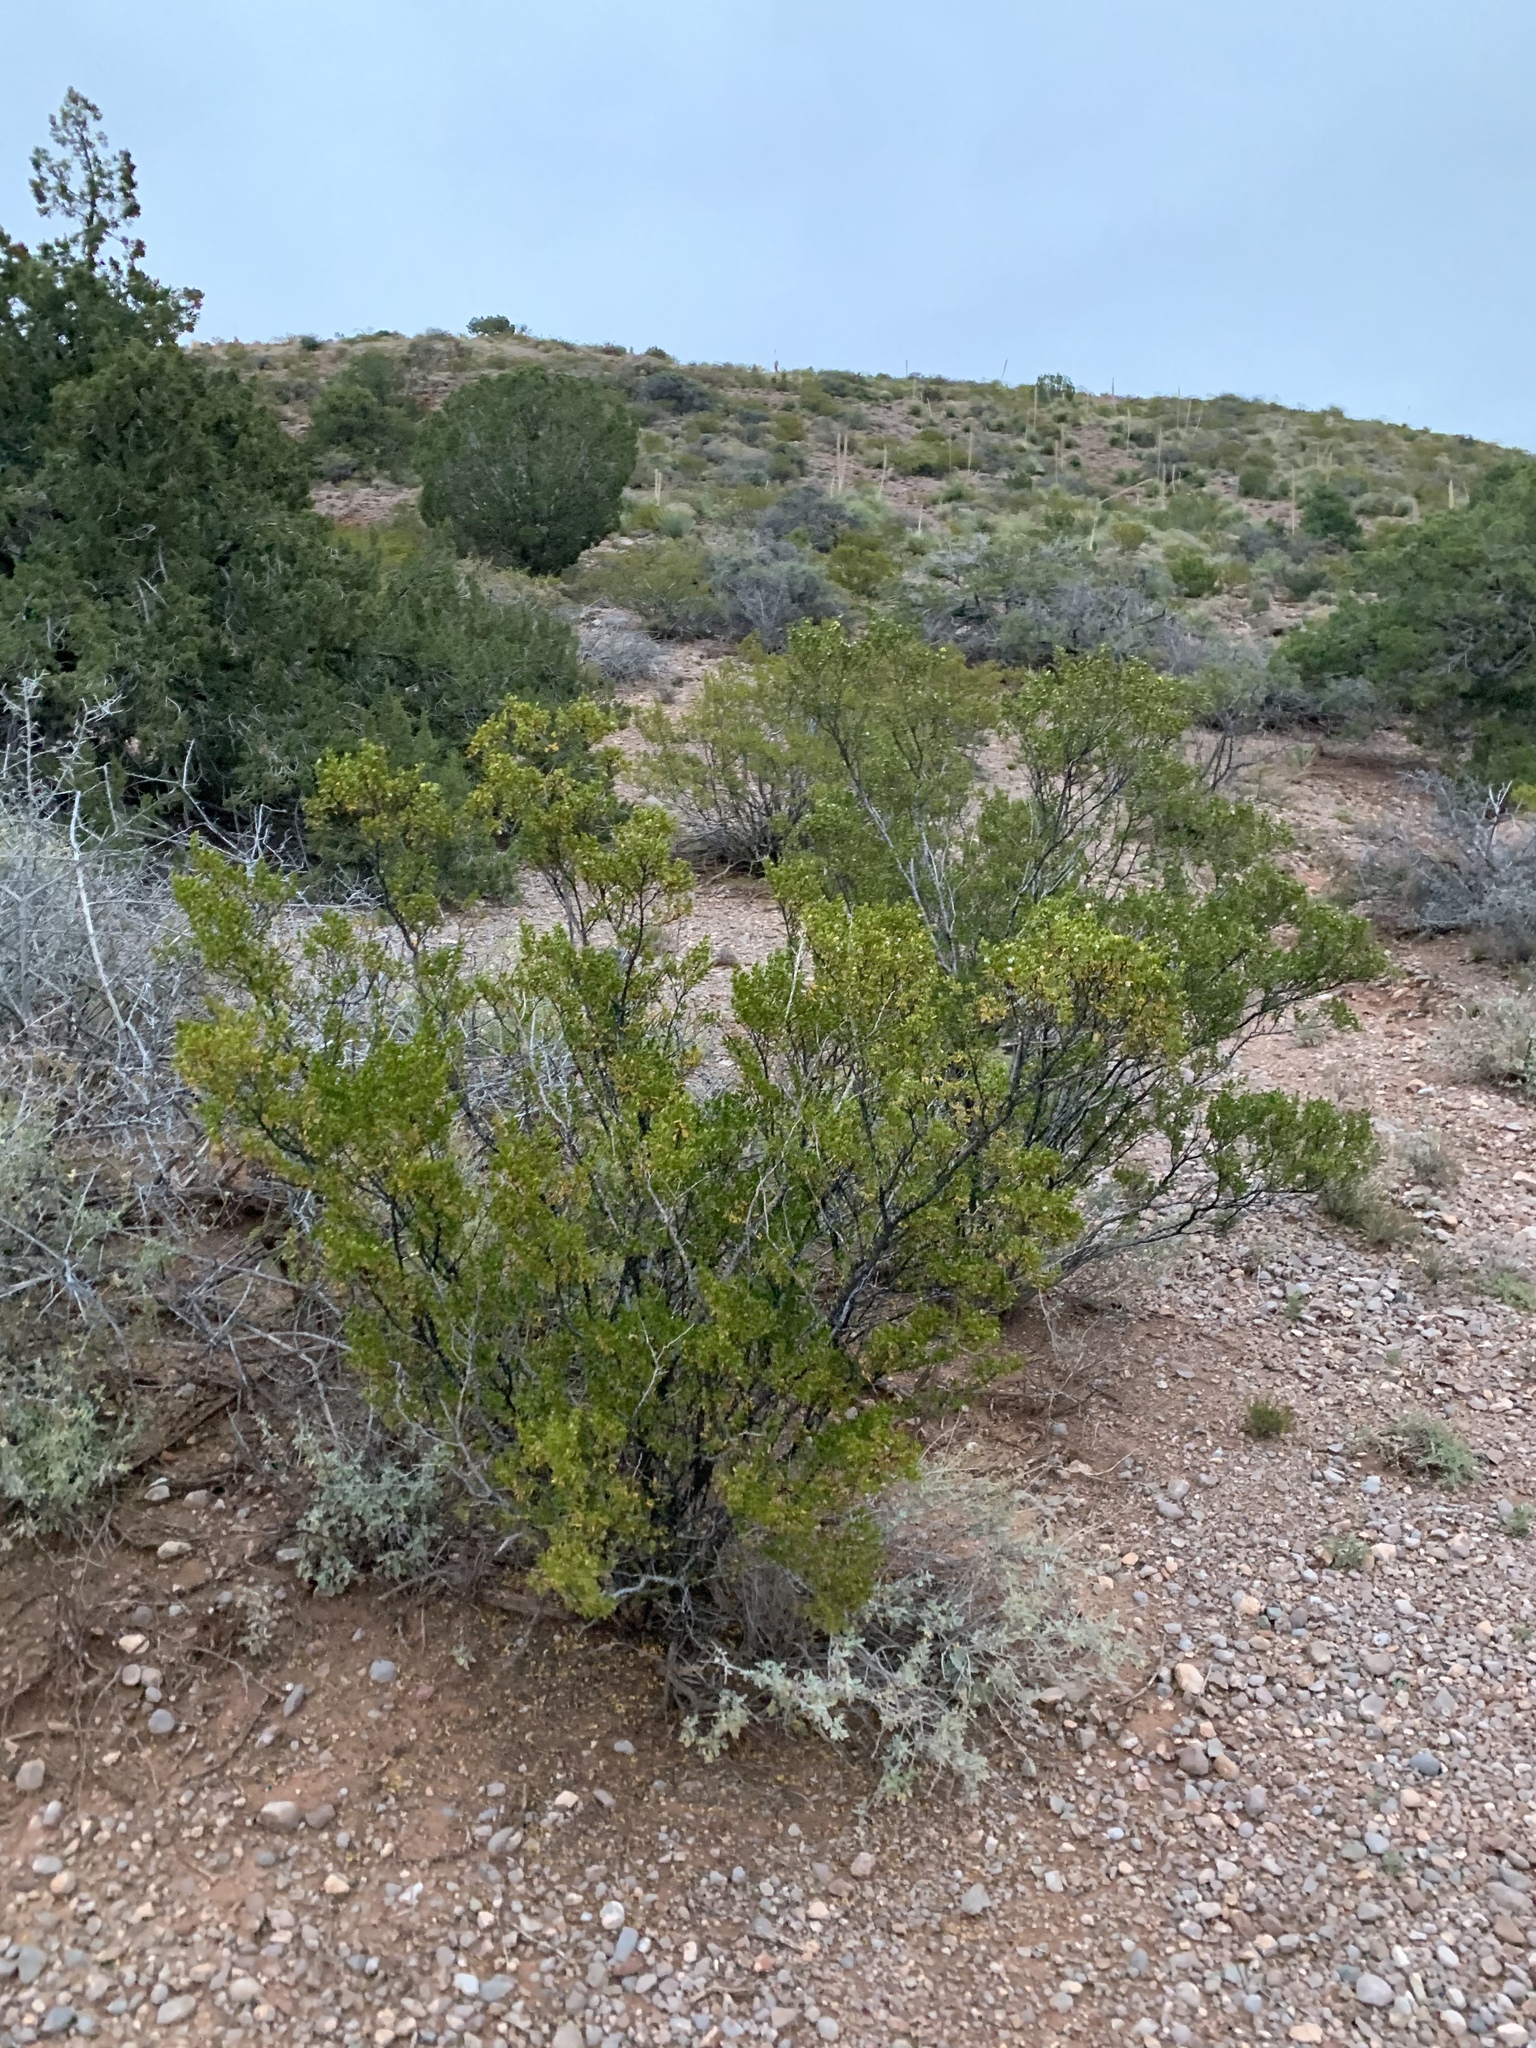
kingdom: Plantae
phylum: Tracheophyta
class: Magnoliopsida
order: Zygophyllales
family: Zygophyllaceae
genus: Larrea
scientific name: Larrea tridentata
